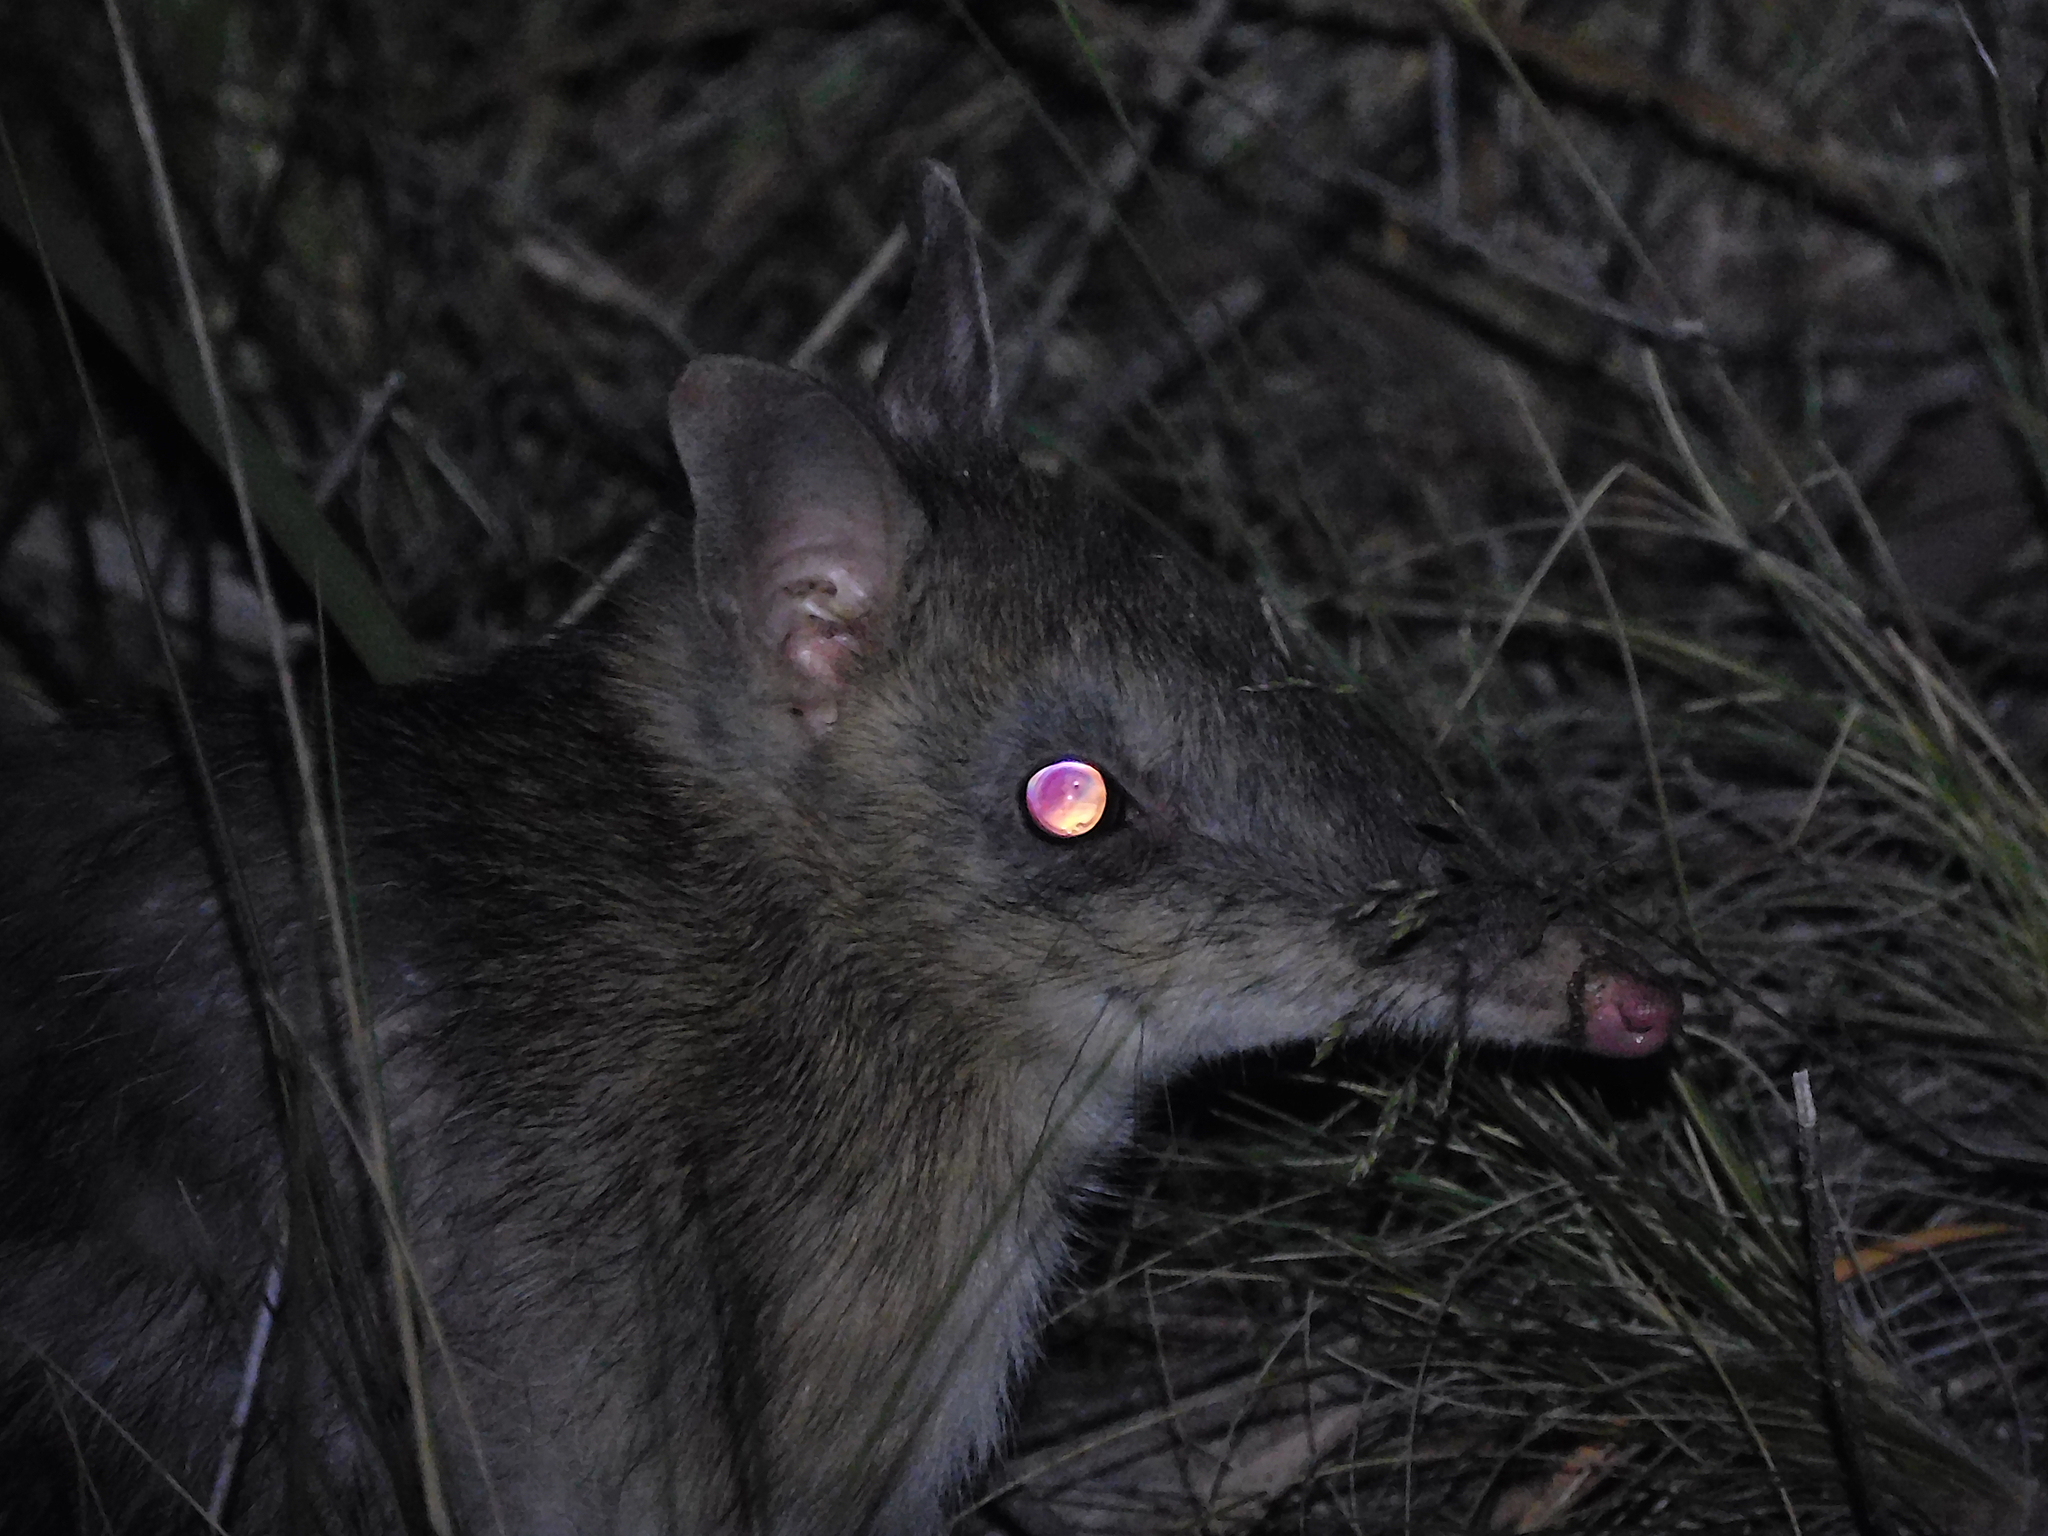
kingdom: Animalia
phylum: Chordata
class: Mammalia
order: Peramelemorphia
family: Peramelidae
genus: Perameles
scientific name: Perameles gunnii
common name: Eastern barred bandicoot
